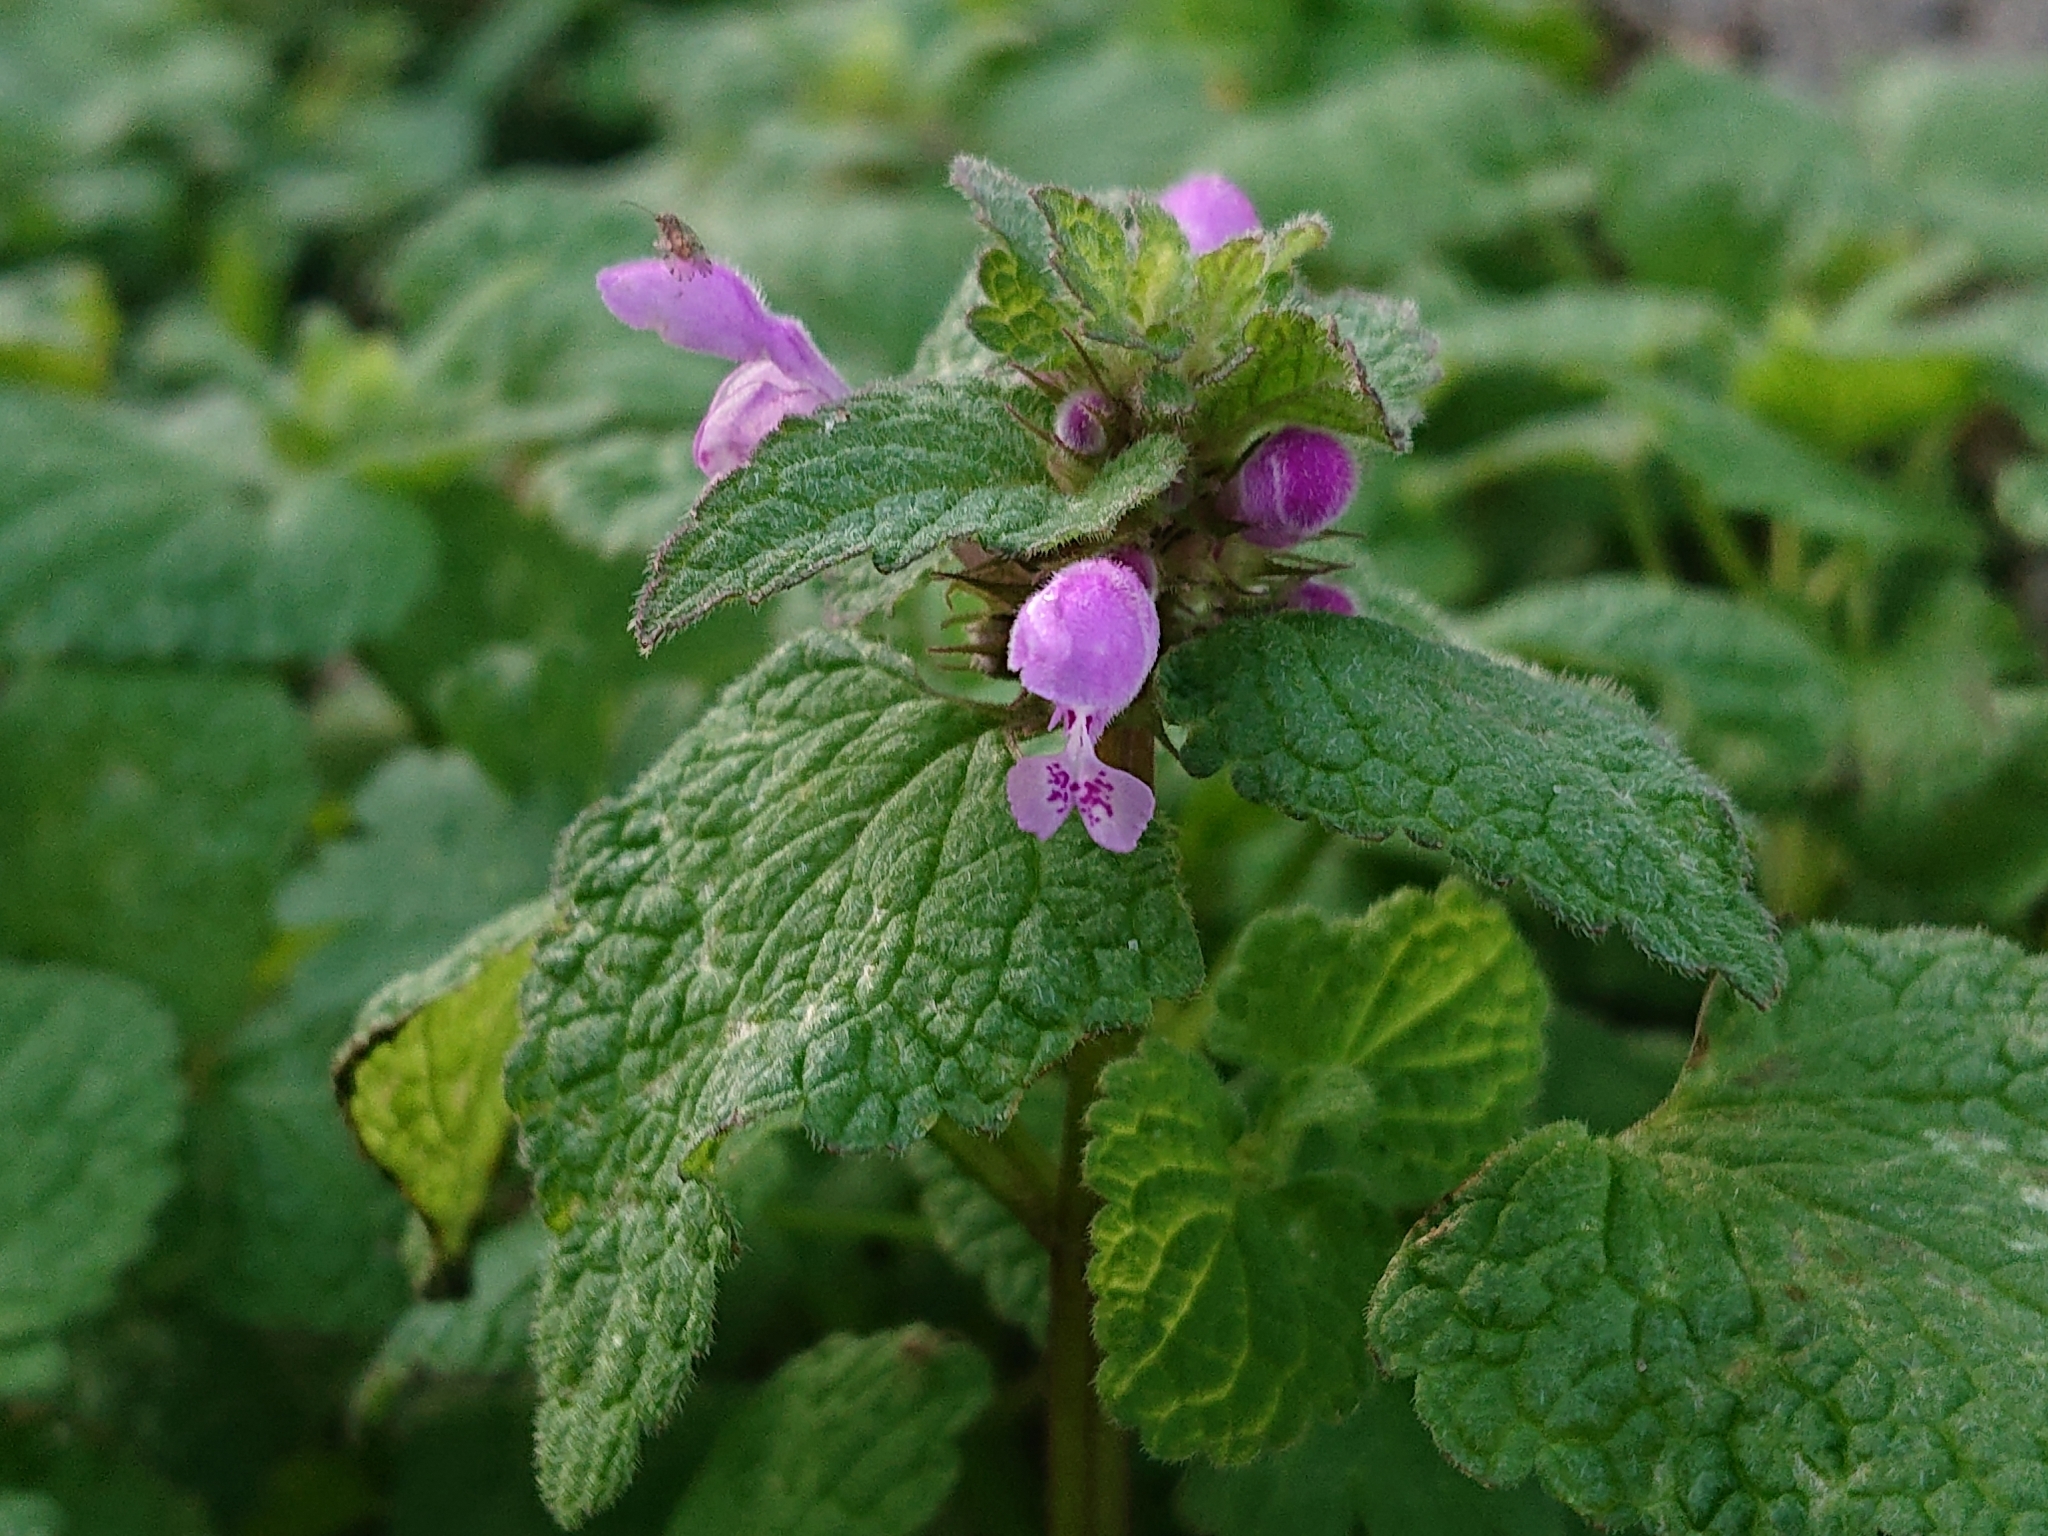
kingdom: Plantae
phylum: Tracheophyta
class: Magnoliopsida
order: Lamiales
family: Lamiaceae
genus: Lamium
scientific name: Lamium purpureum
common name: Red dead-nettle
